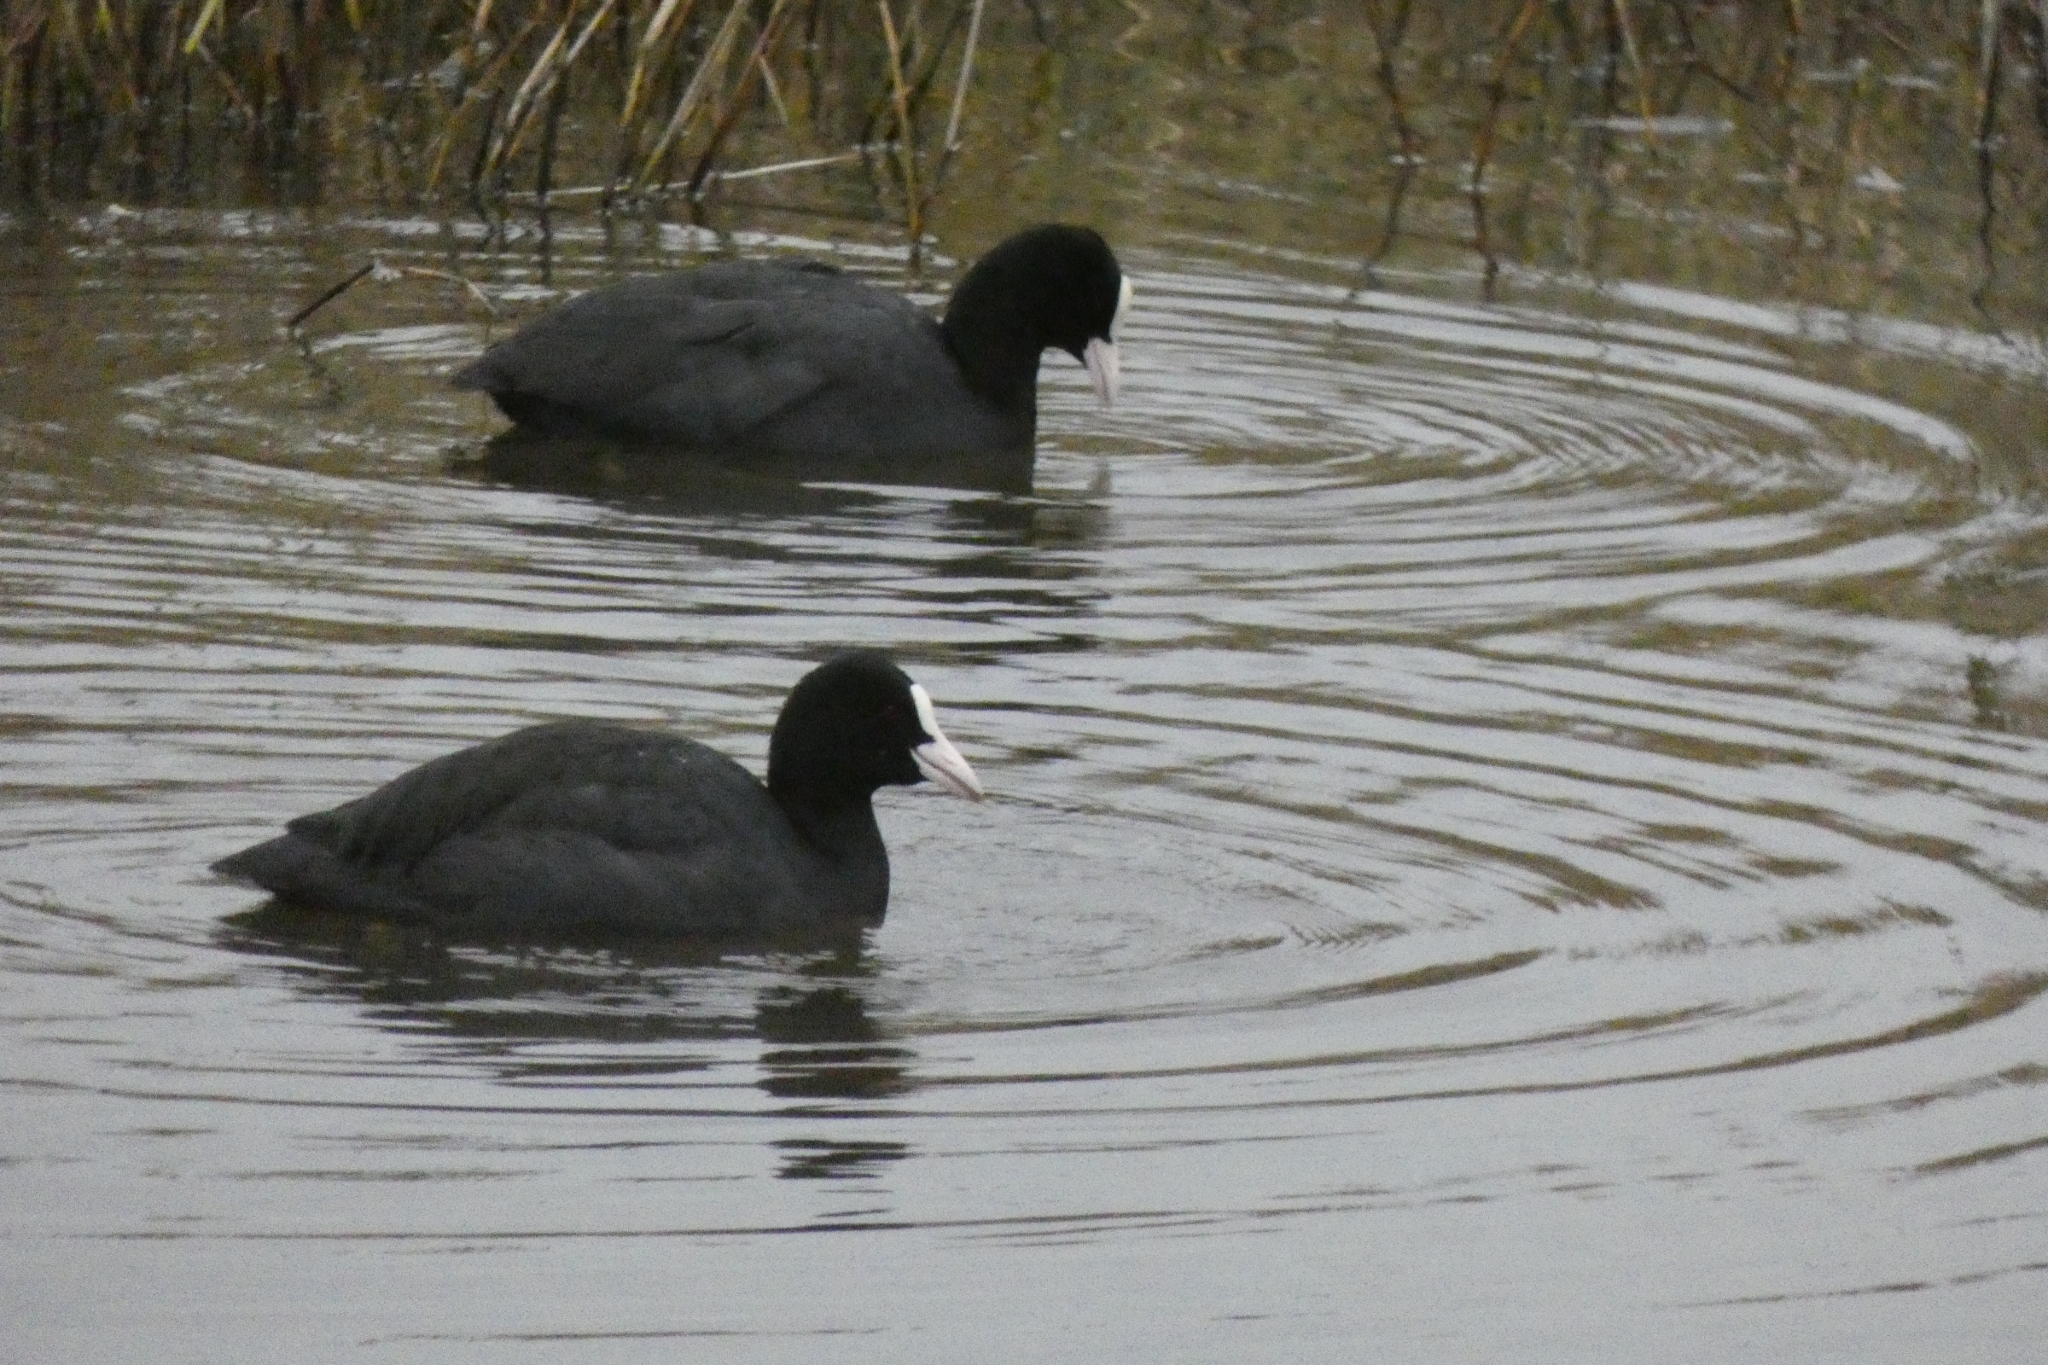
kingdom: Animalia
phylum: Chordata
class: Aves
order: Gruiformes
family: Rallidae
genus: Fulica
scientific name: Fulica atra
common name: Eurasian coot
